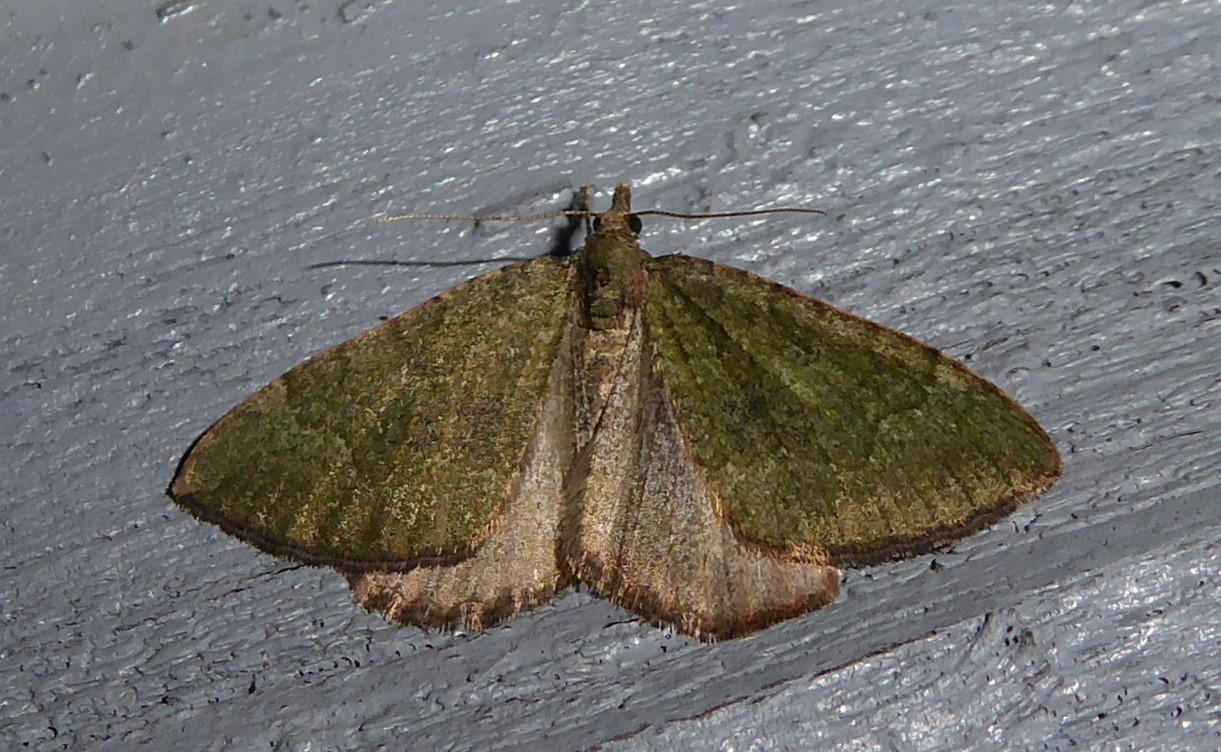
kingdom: Animalia
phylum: Arthropoda
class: Insecta
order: Lepidoptera
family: Geometridae
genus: Epyaxa
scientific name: Epyaxa rosearia
